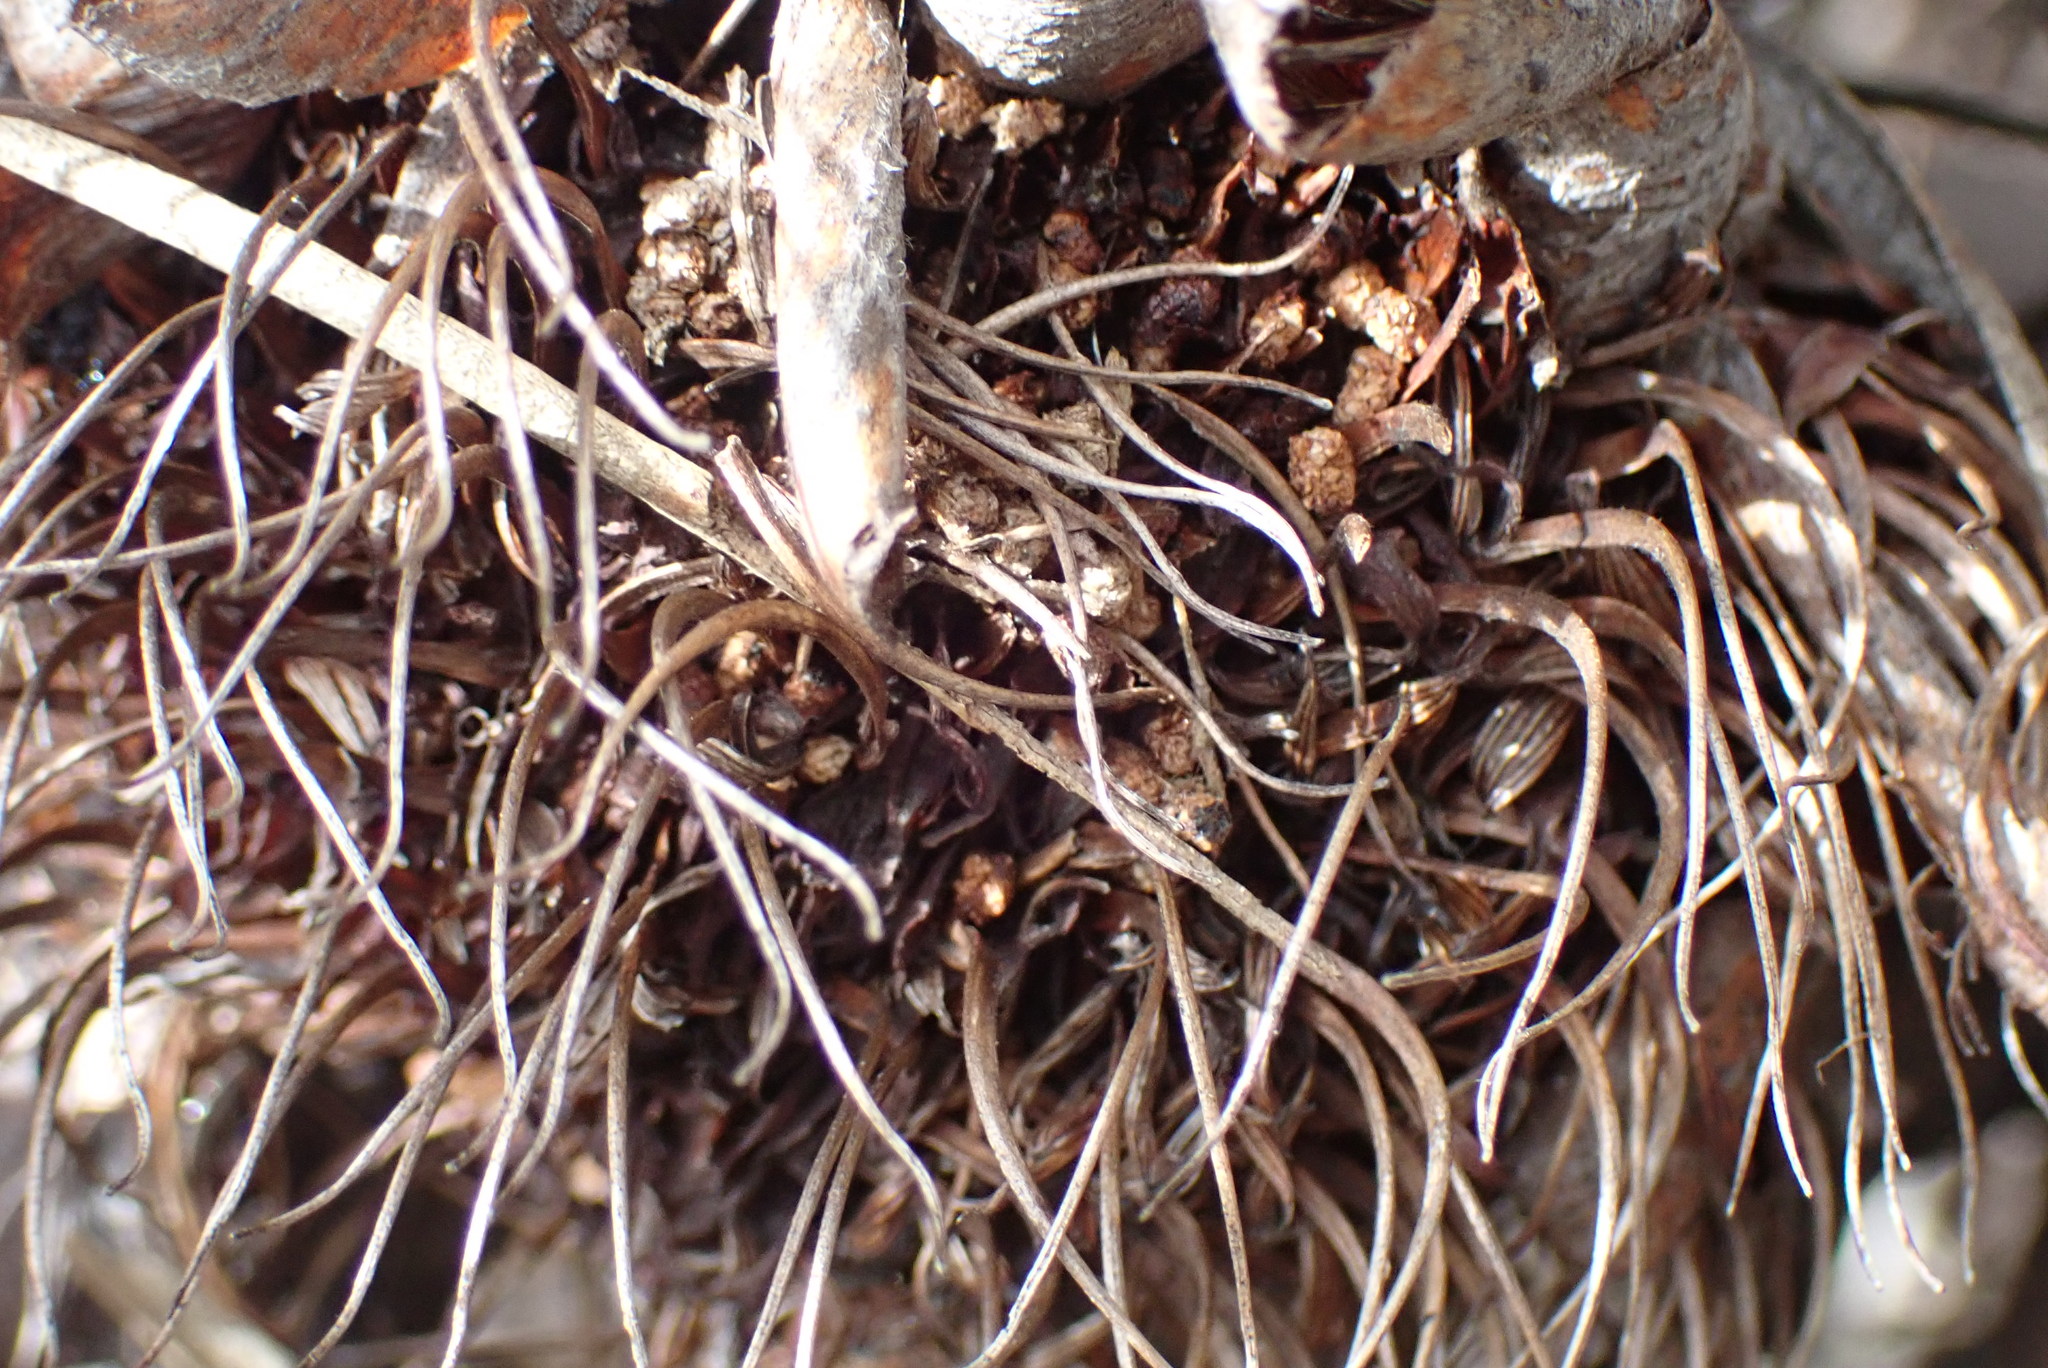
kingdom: Plantae
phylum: Tracheophyta
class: Magnoliopsida
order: Proteales
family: Proteaceae
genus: Protea
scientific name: Protea humiflora
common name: Patent-leaf sugarbush
